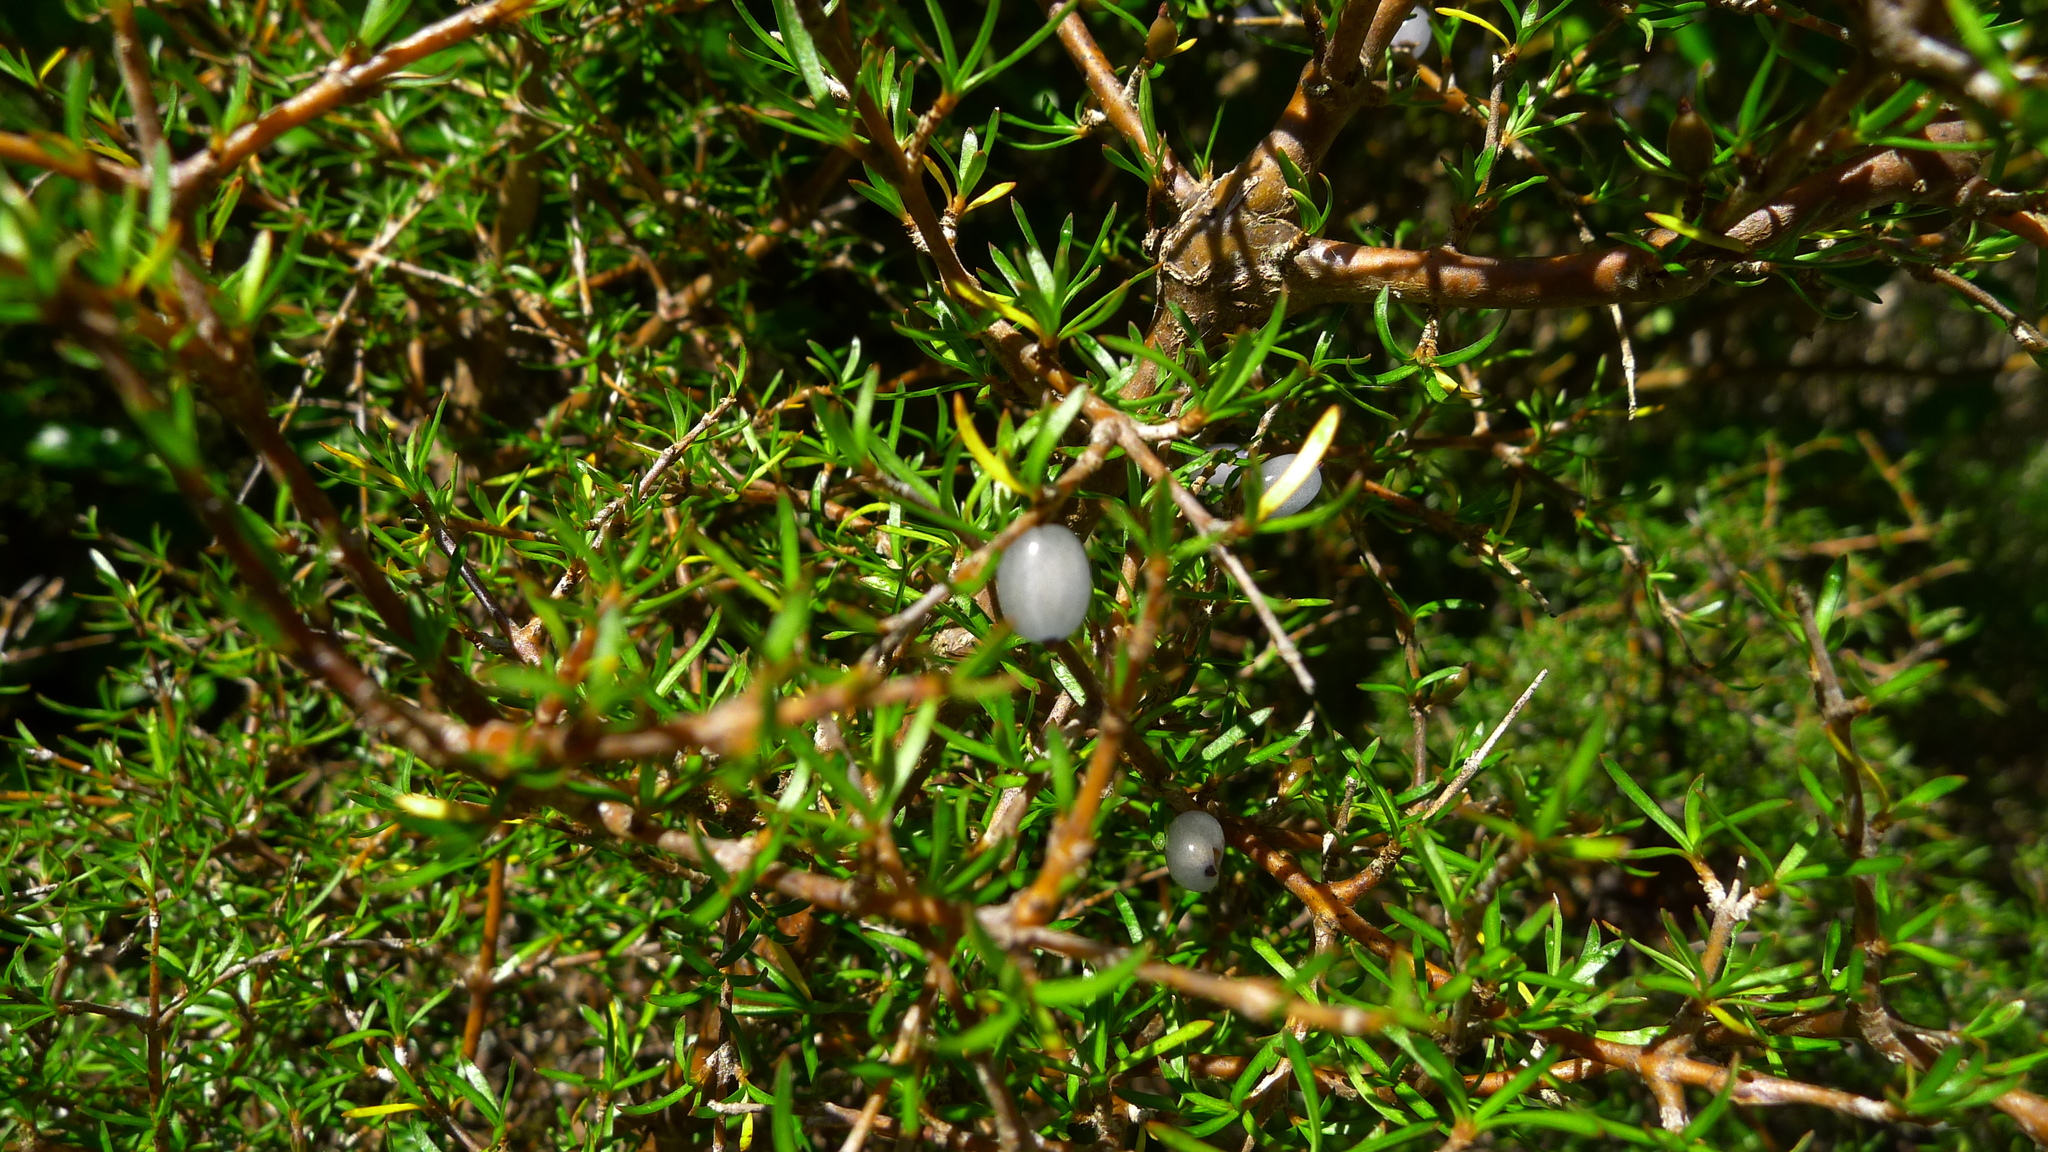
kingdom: Plantae
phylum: Tracheophyta
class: Magnoliopsida
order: Gentianales
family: Rubiaceae
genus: Coprosma
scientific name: Coprosma rugosa
